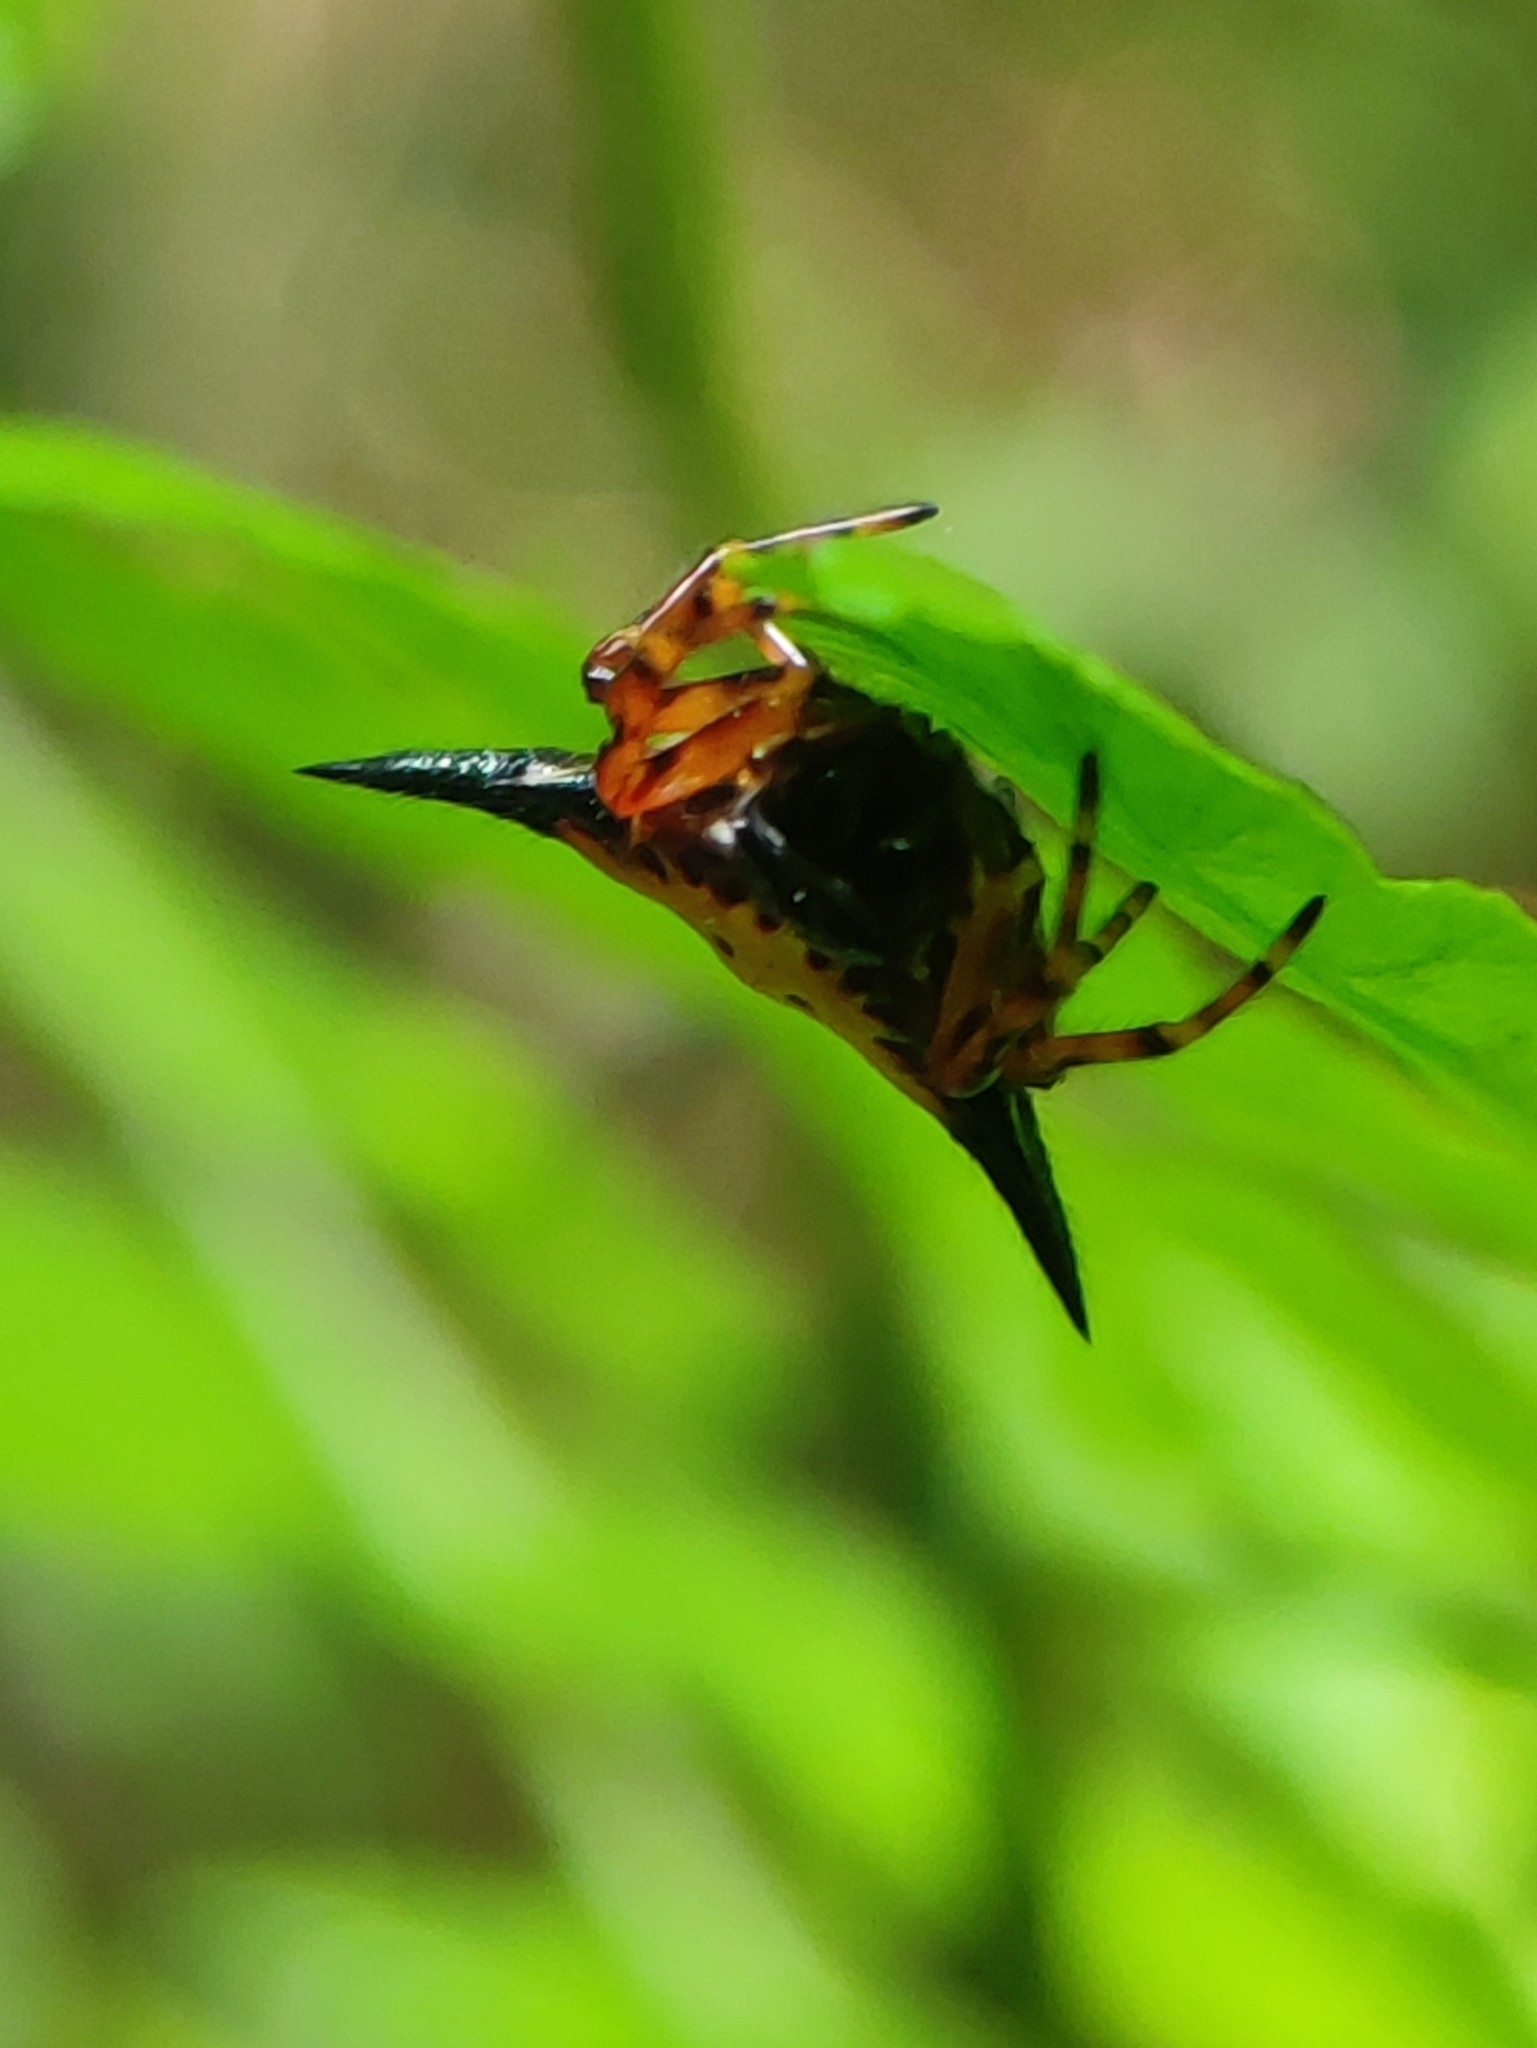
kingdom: Animalia
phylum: Arthropoda
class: Arachnida
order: Araneae
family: Araneidae
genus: Macracantha
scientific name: Macracantha hasselti
